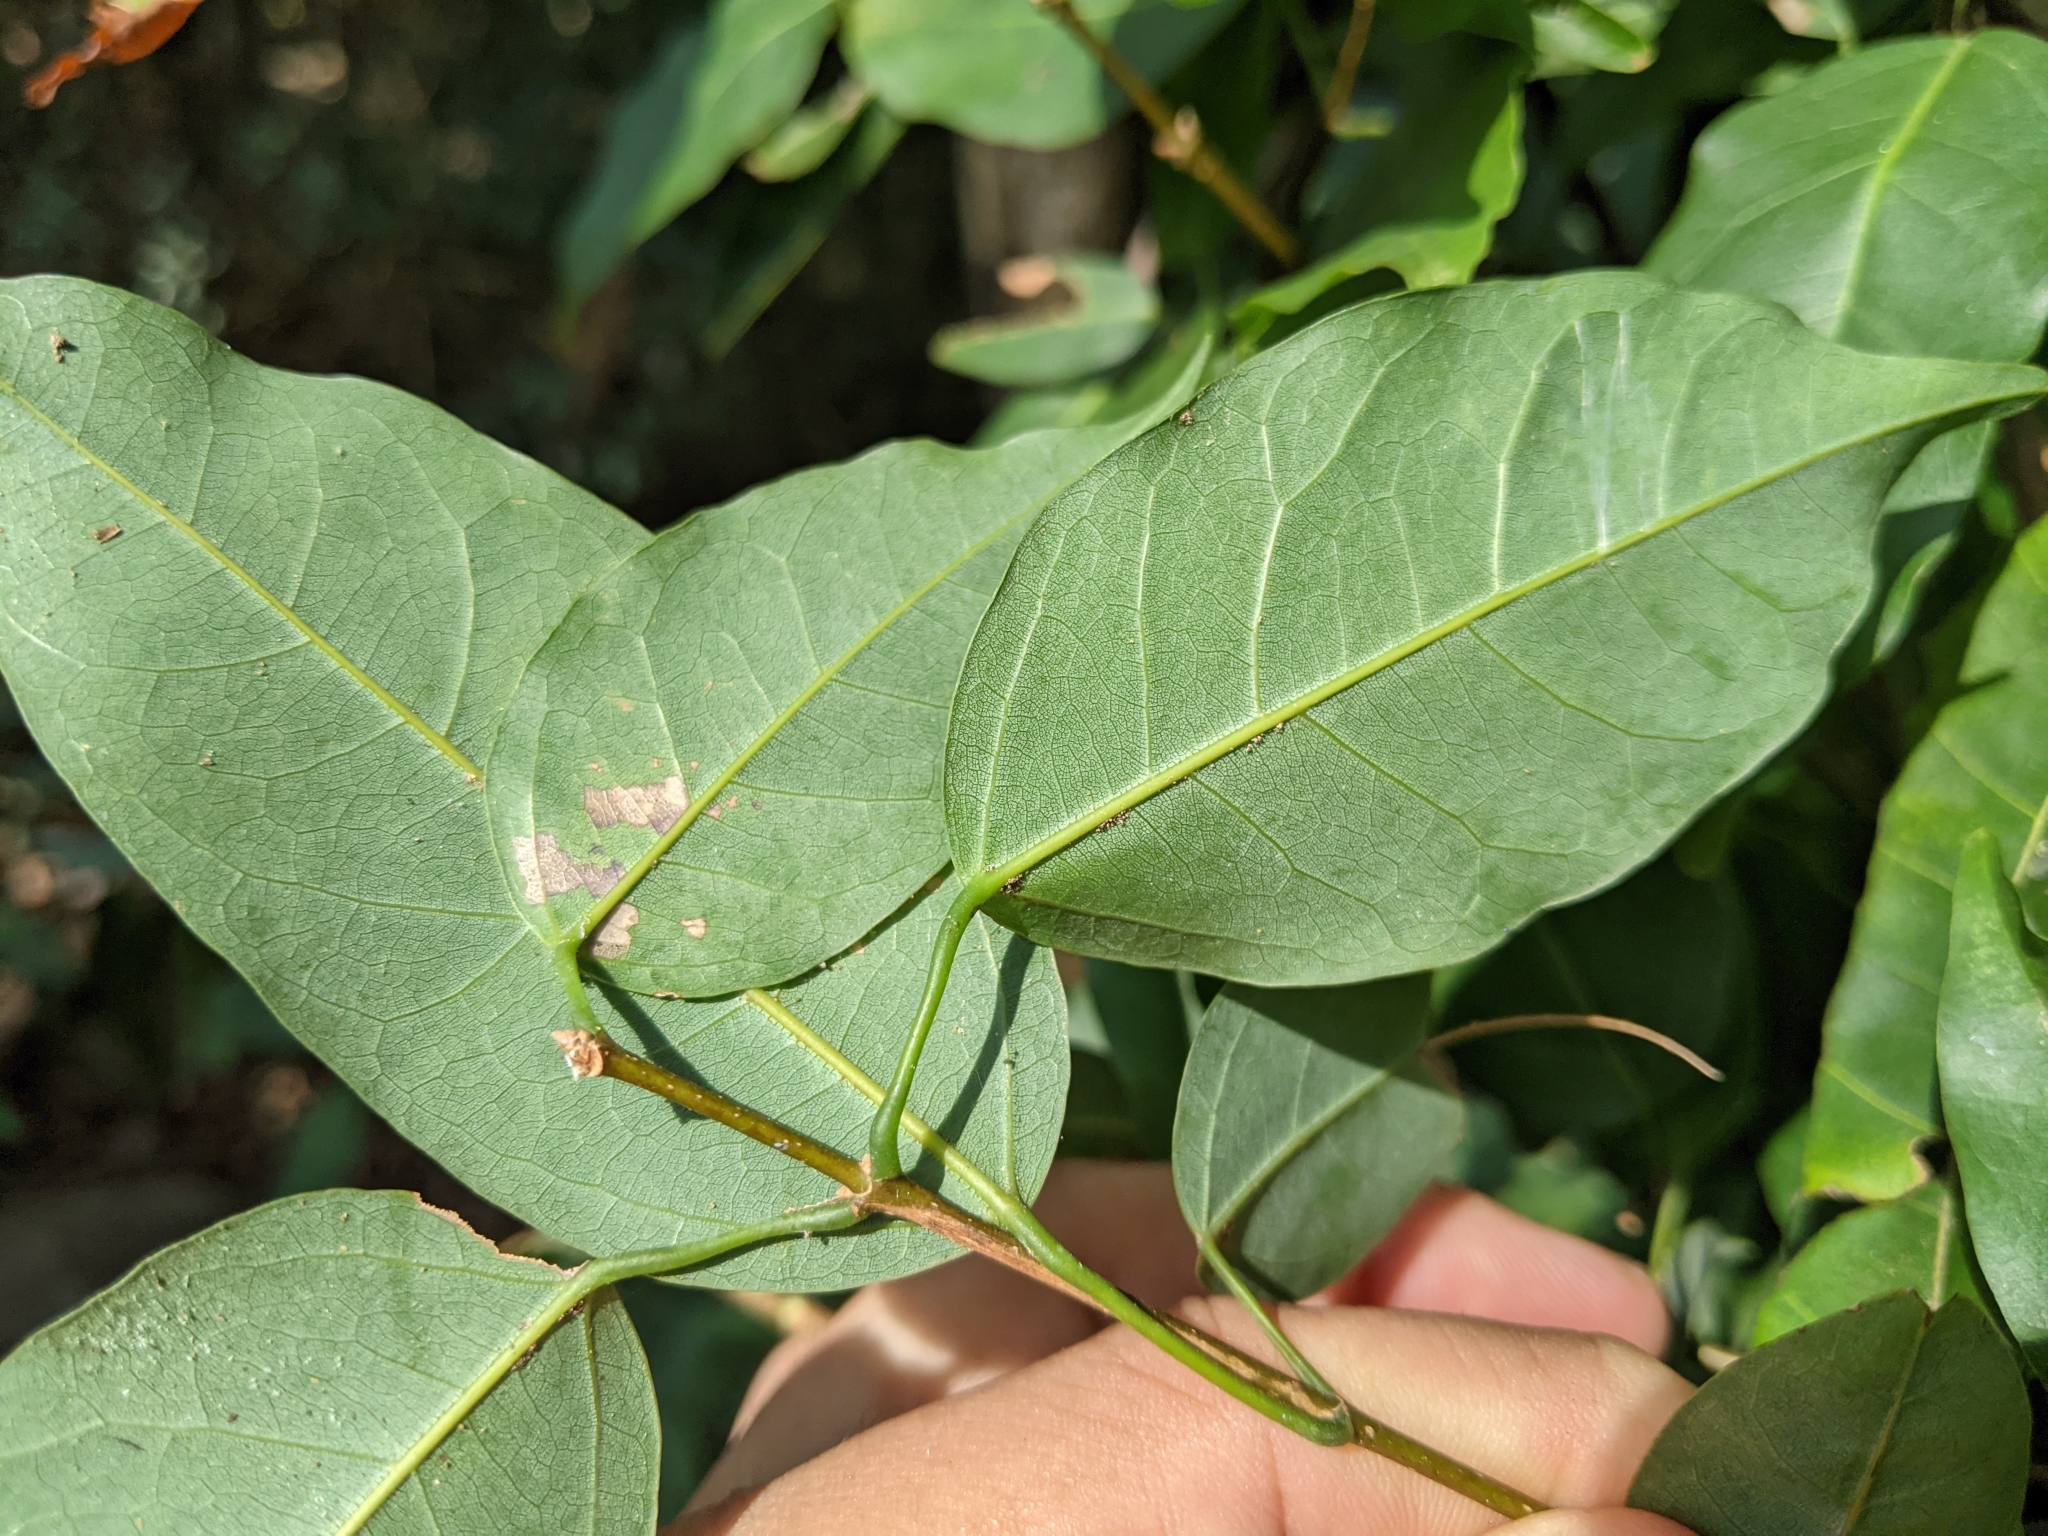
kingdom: Plantae
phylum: Tracheophyta
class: Magnoliopsida
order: Sapindales
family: Sapindaceae
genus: Acer
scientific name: Acer oblongum
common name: Himalayan maple
